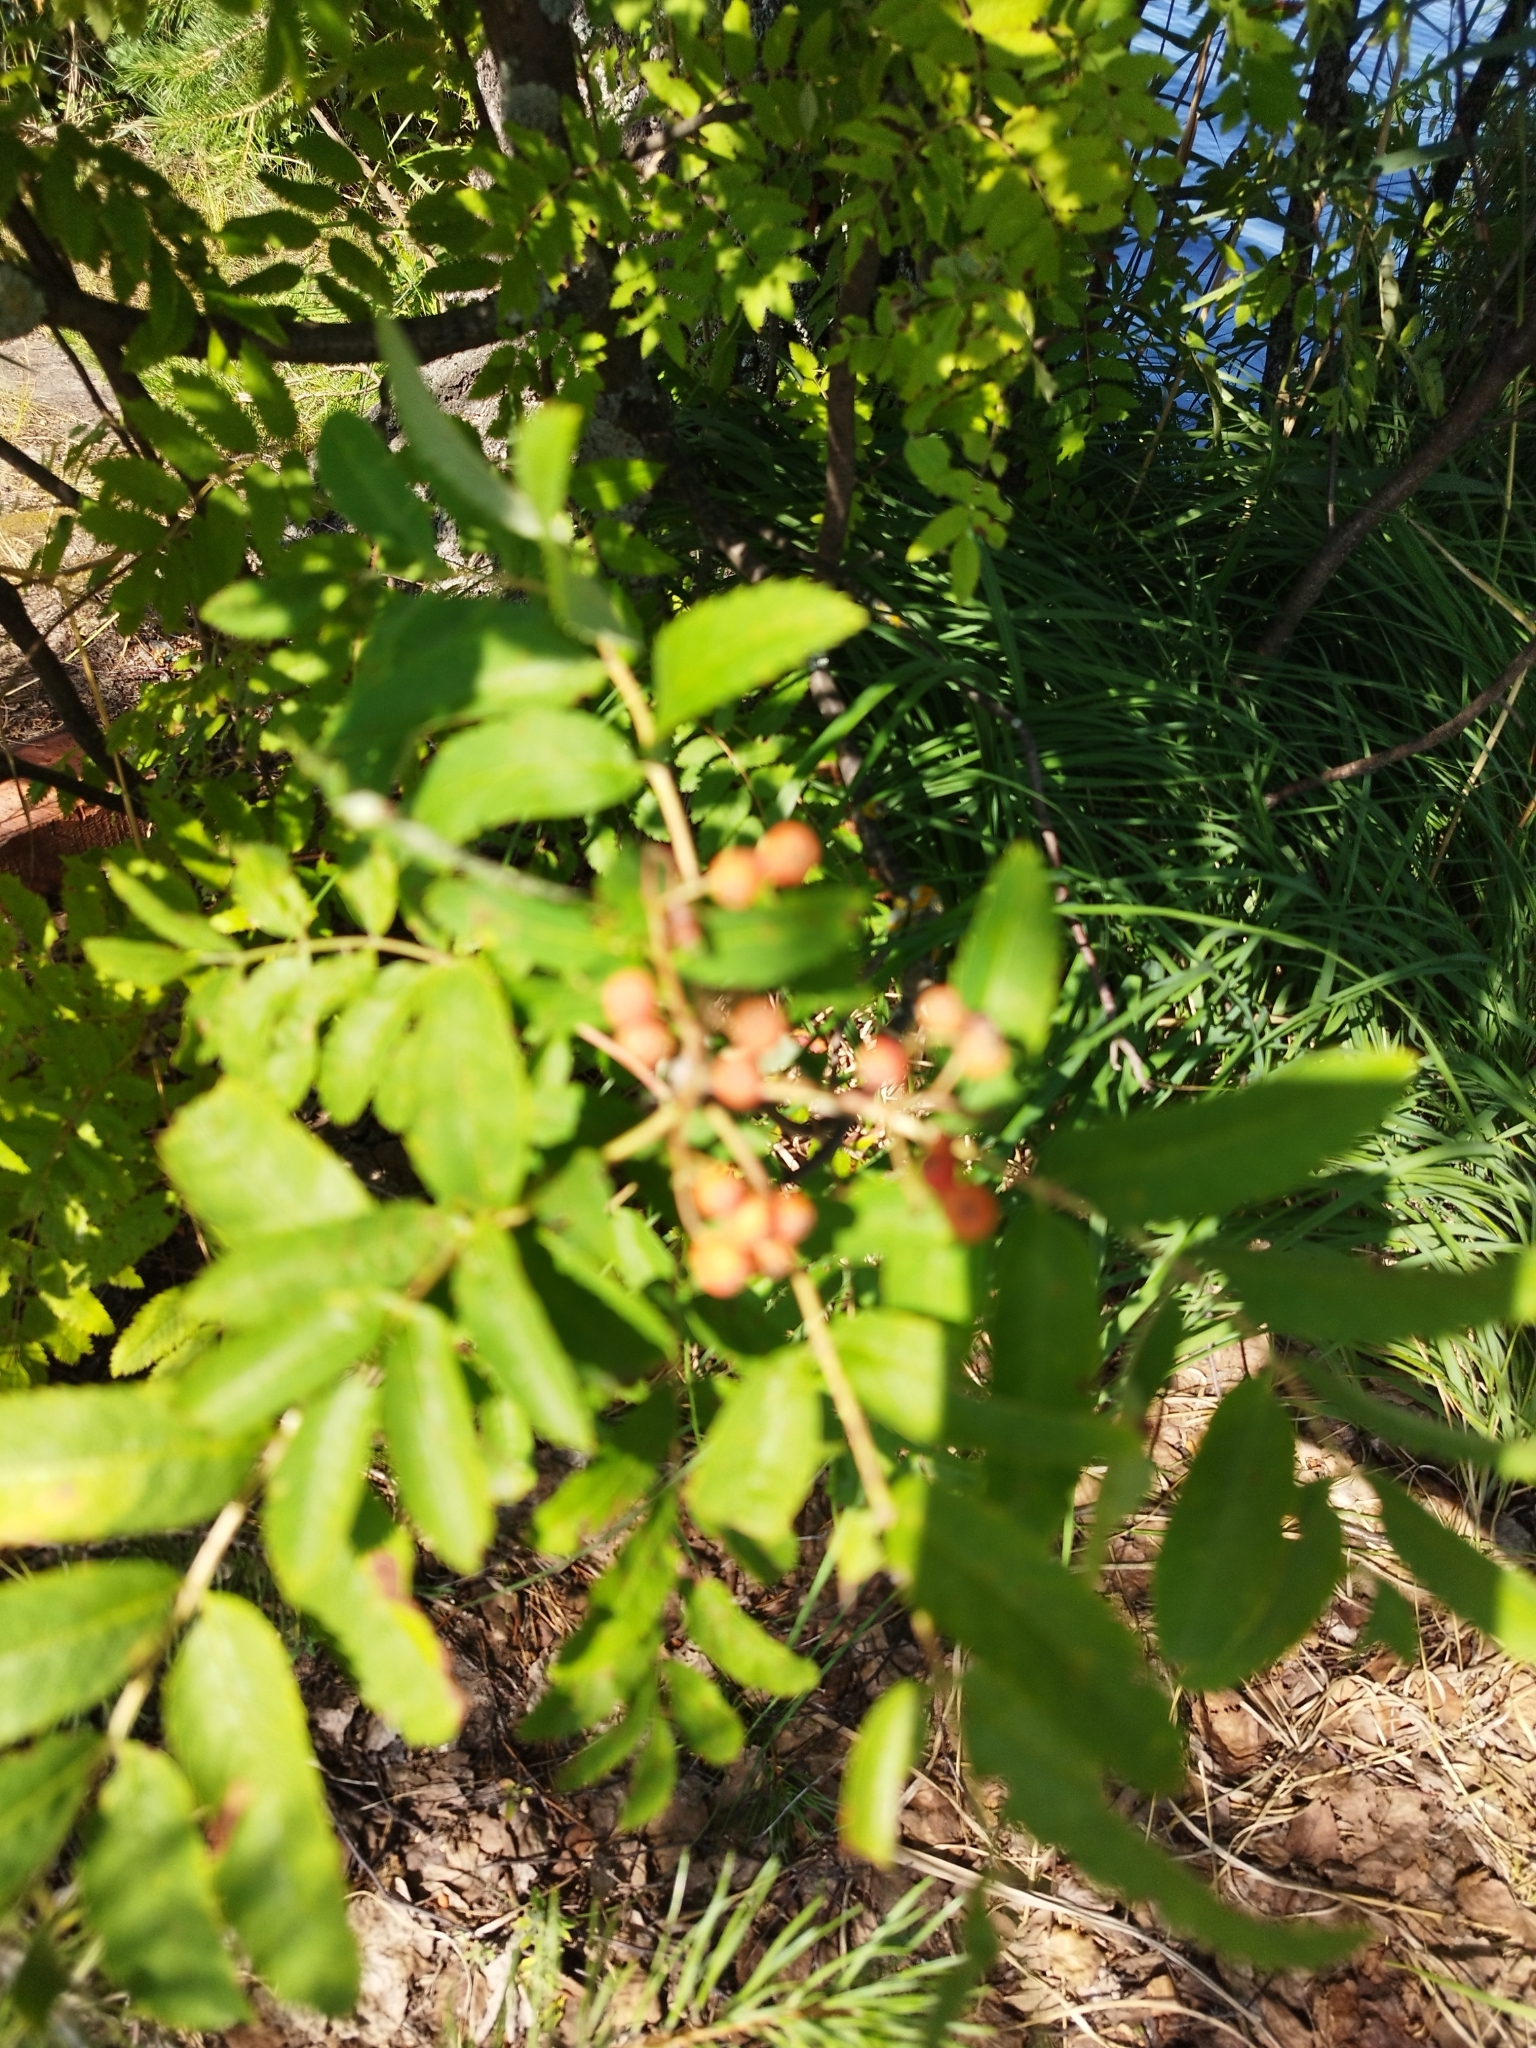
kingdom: Plantae
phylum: Tracheophyta
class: Magnoliopsida
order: Rosales
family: Rosaceae
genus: Sorbus
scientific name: Sorbus aucuparia
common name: Rowan
